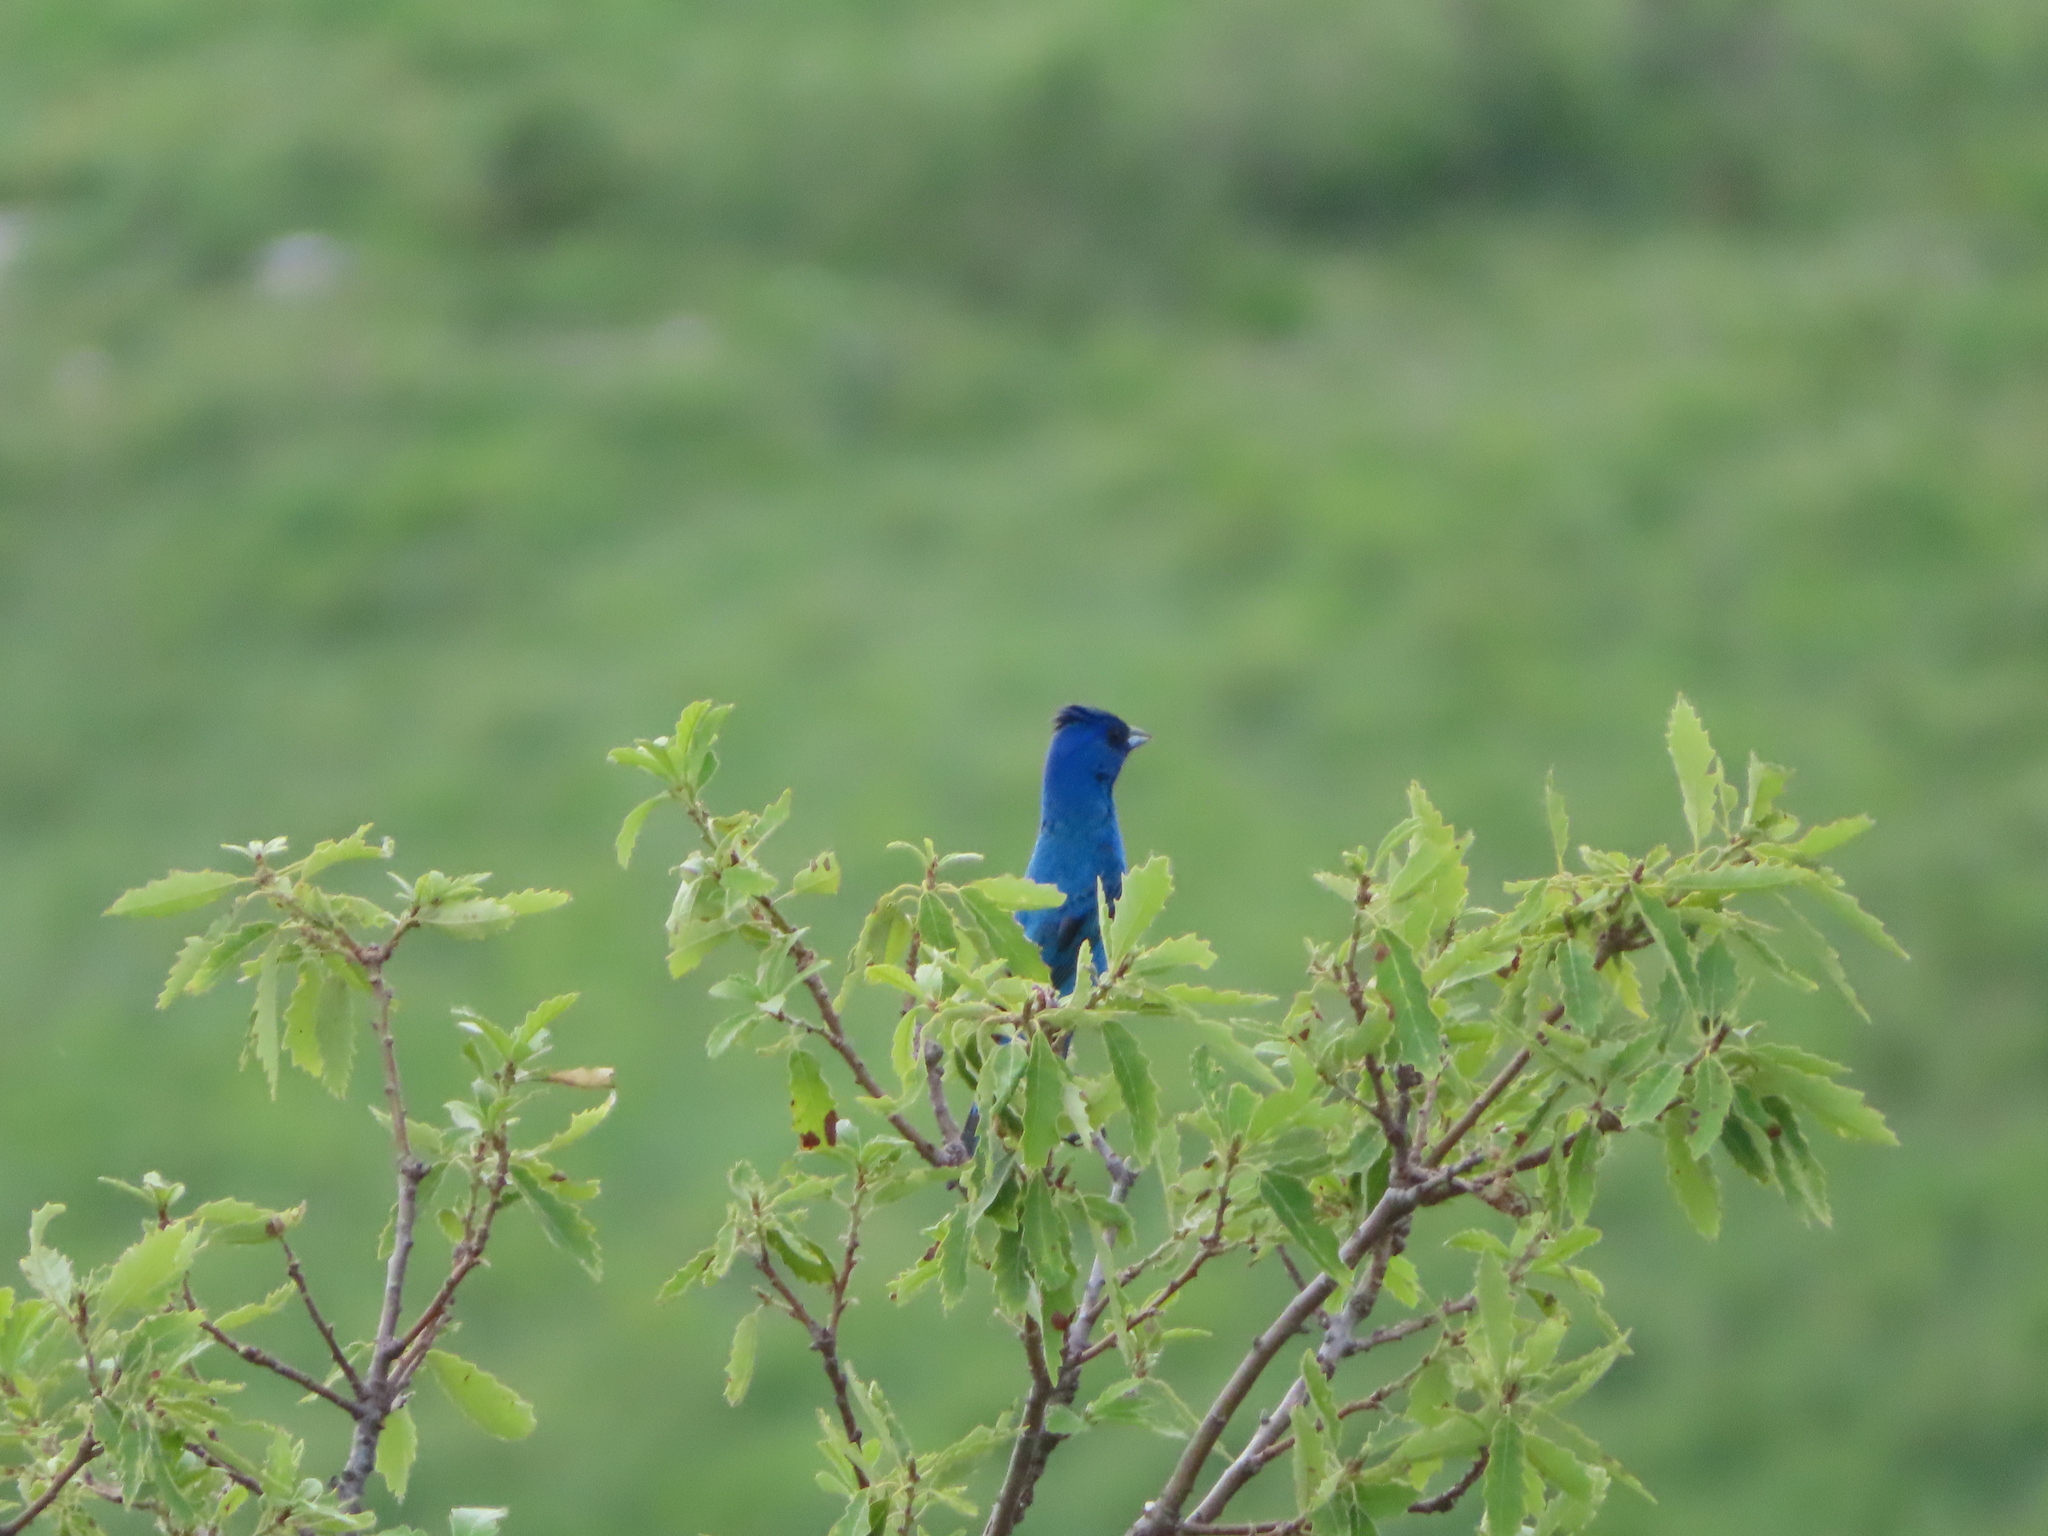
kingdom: Animalia
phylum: Chordata
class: Aves
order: Passeriformes
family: Cardinalidae
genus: Passerina
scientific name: Passerina cyanea
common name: Indigo bunting
